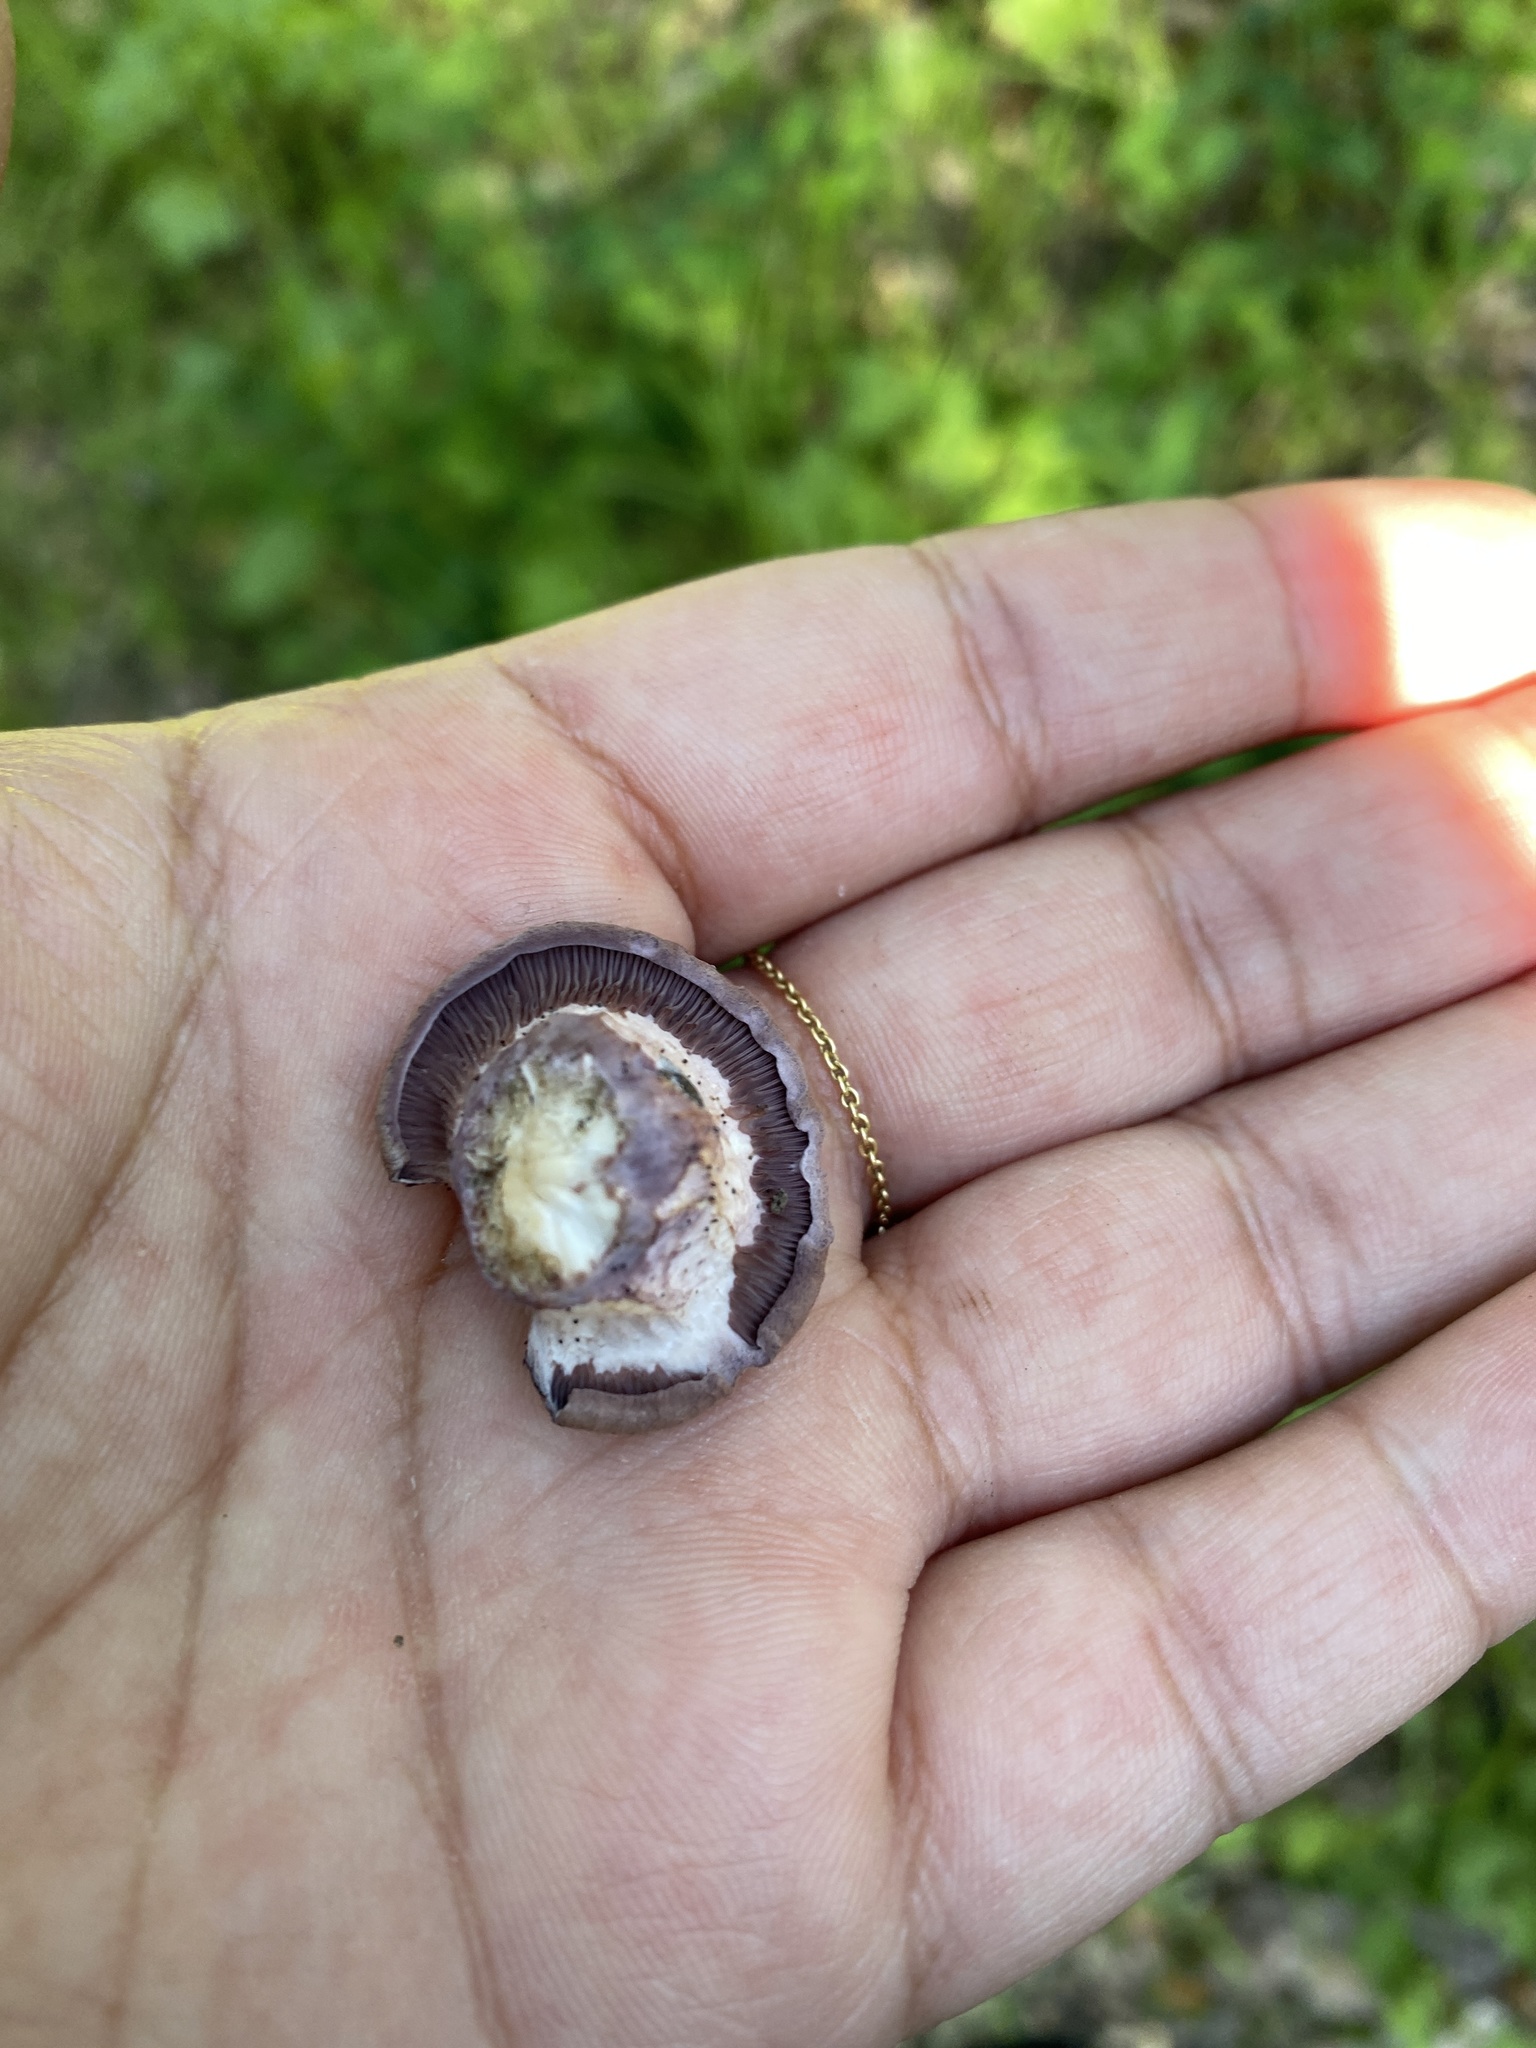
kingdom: Fungi
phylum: Basidiomycota
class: Agaricomycetes
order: Polyporales
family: Panaceae
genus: Panus
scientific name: Panus conchatus
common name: Lilac oysterling
